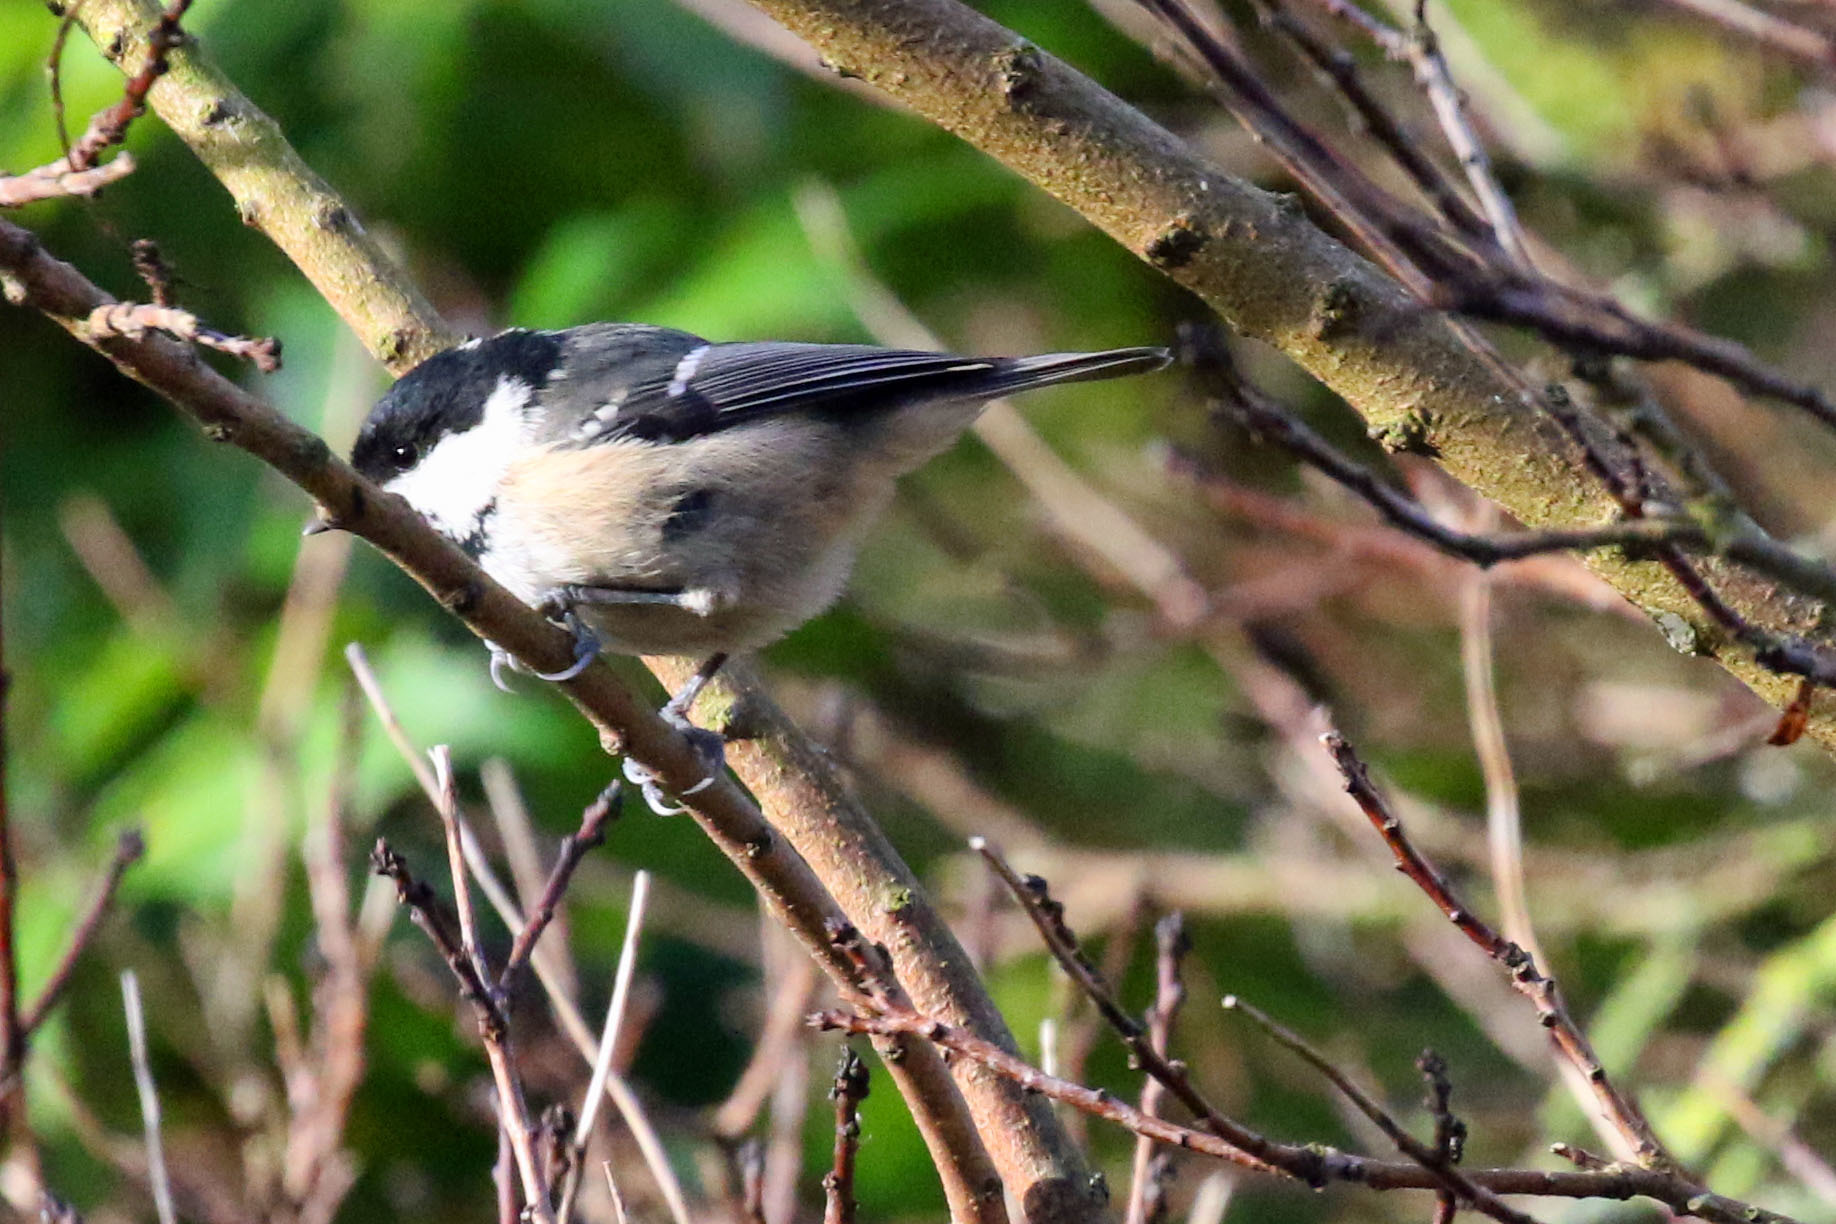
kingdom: Animalia
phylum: Chordata
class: Aves
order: Passeriformes
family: Paridae
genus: Periparus
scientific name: Periparus ater
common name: Coal tit
